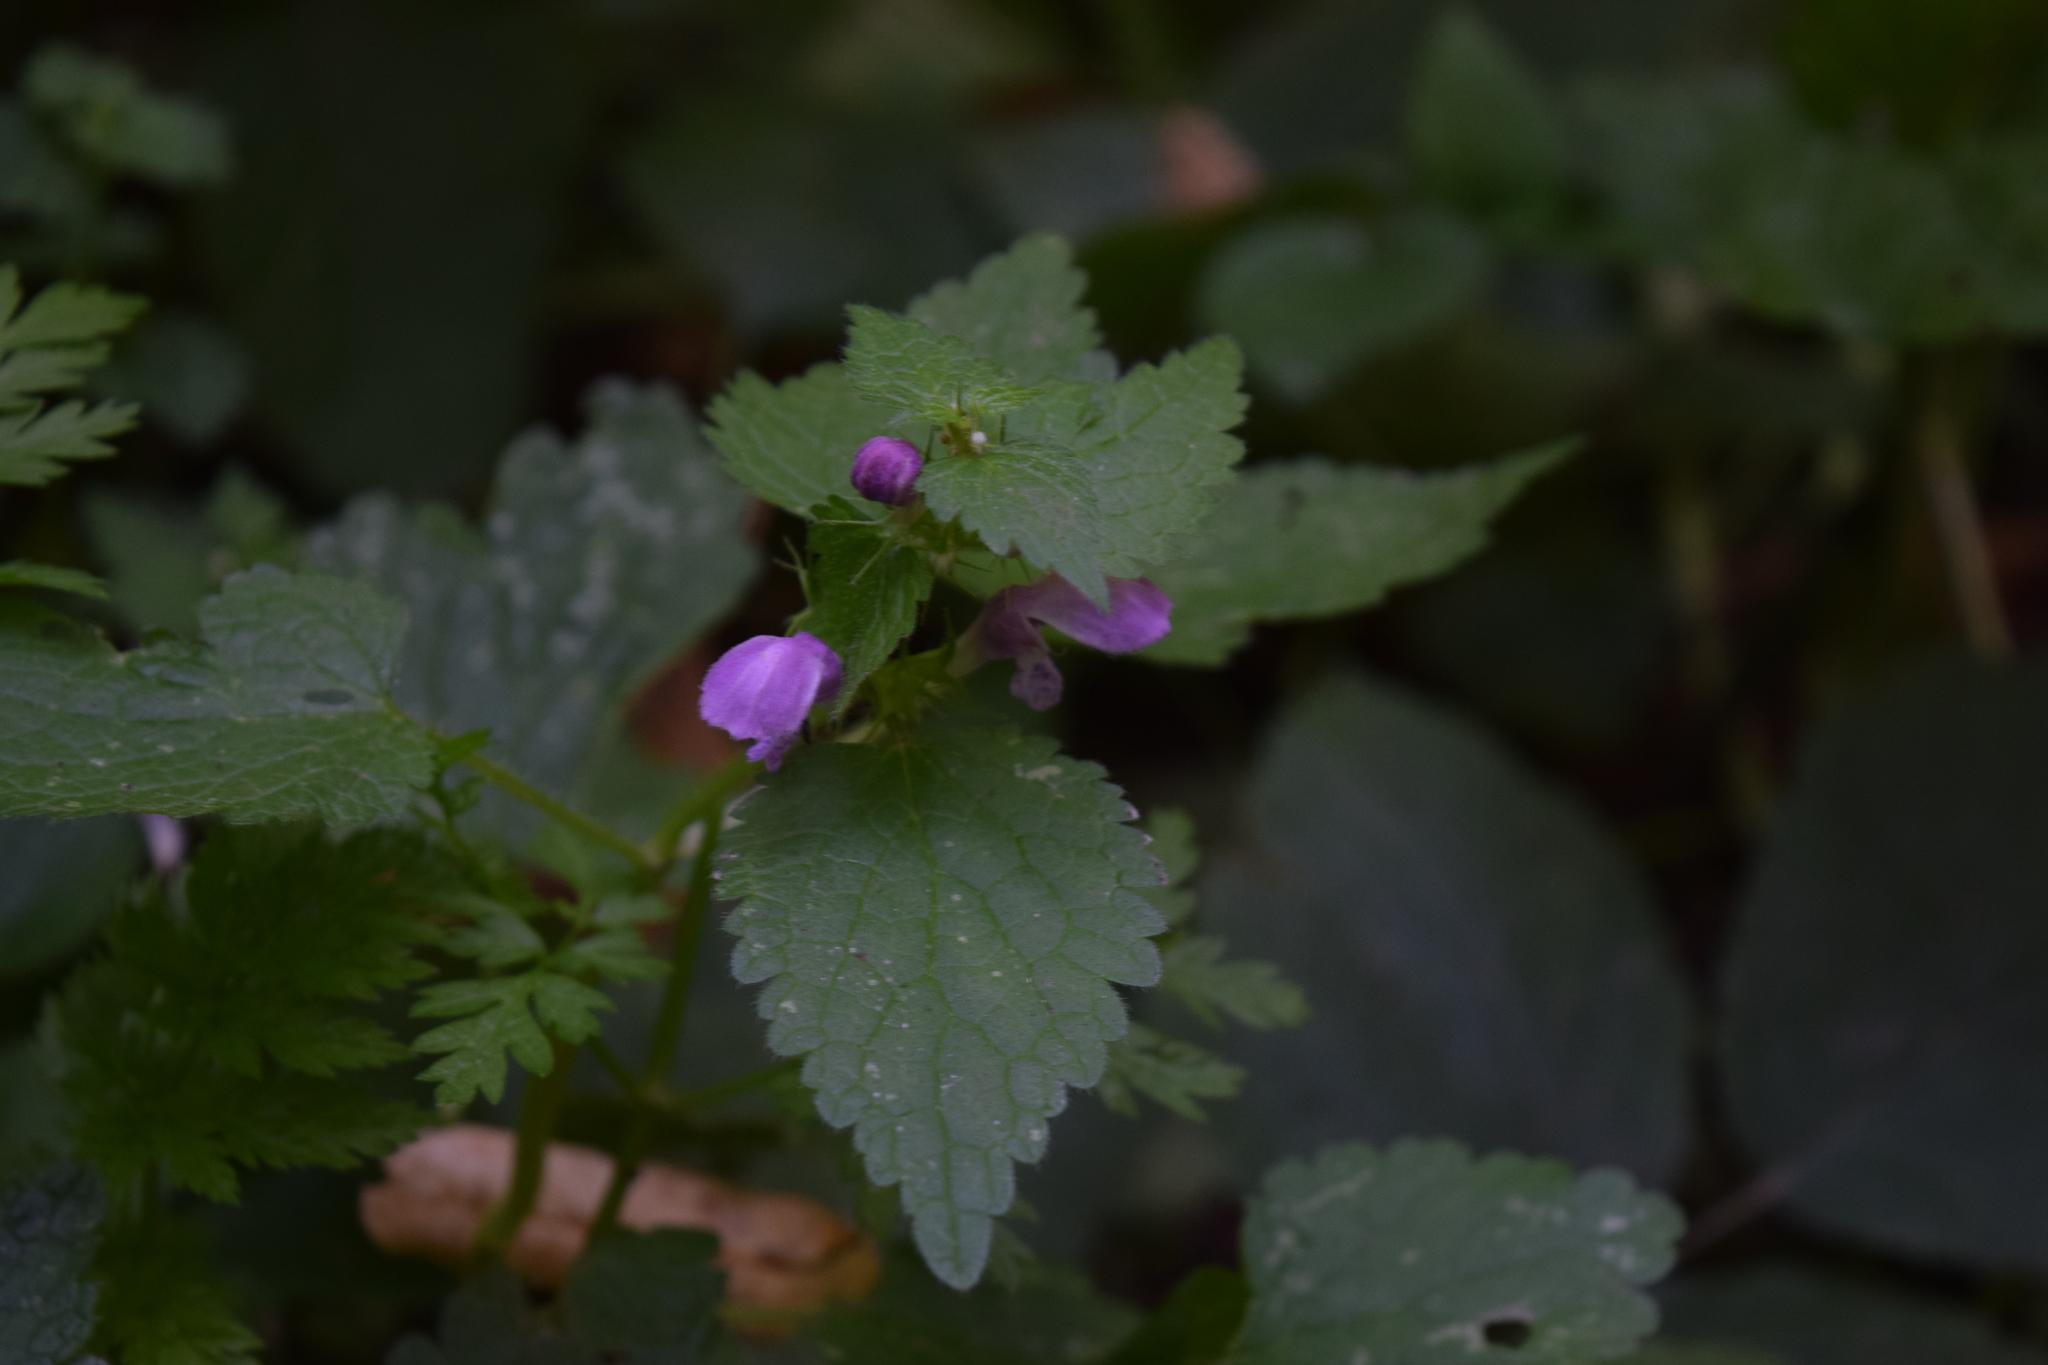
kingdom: Plantae
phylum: Tracheophyta
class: Magnoliopsida
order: Lamiales
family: Lamiaceae
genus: Lamium
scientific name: Lamium maculatum
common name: Spotted dead-nettle
